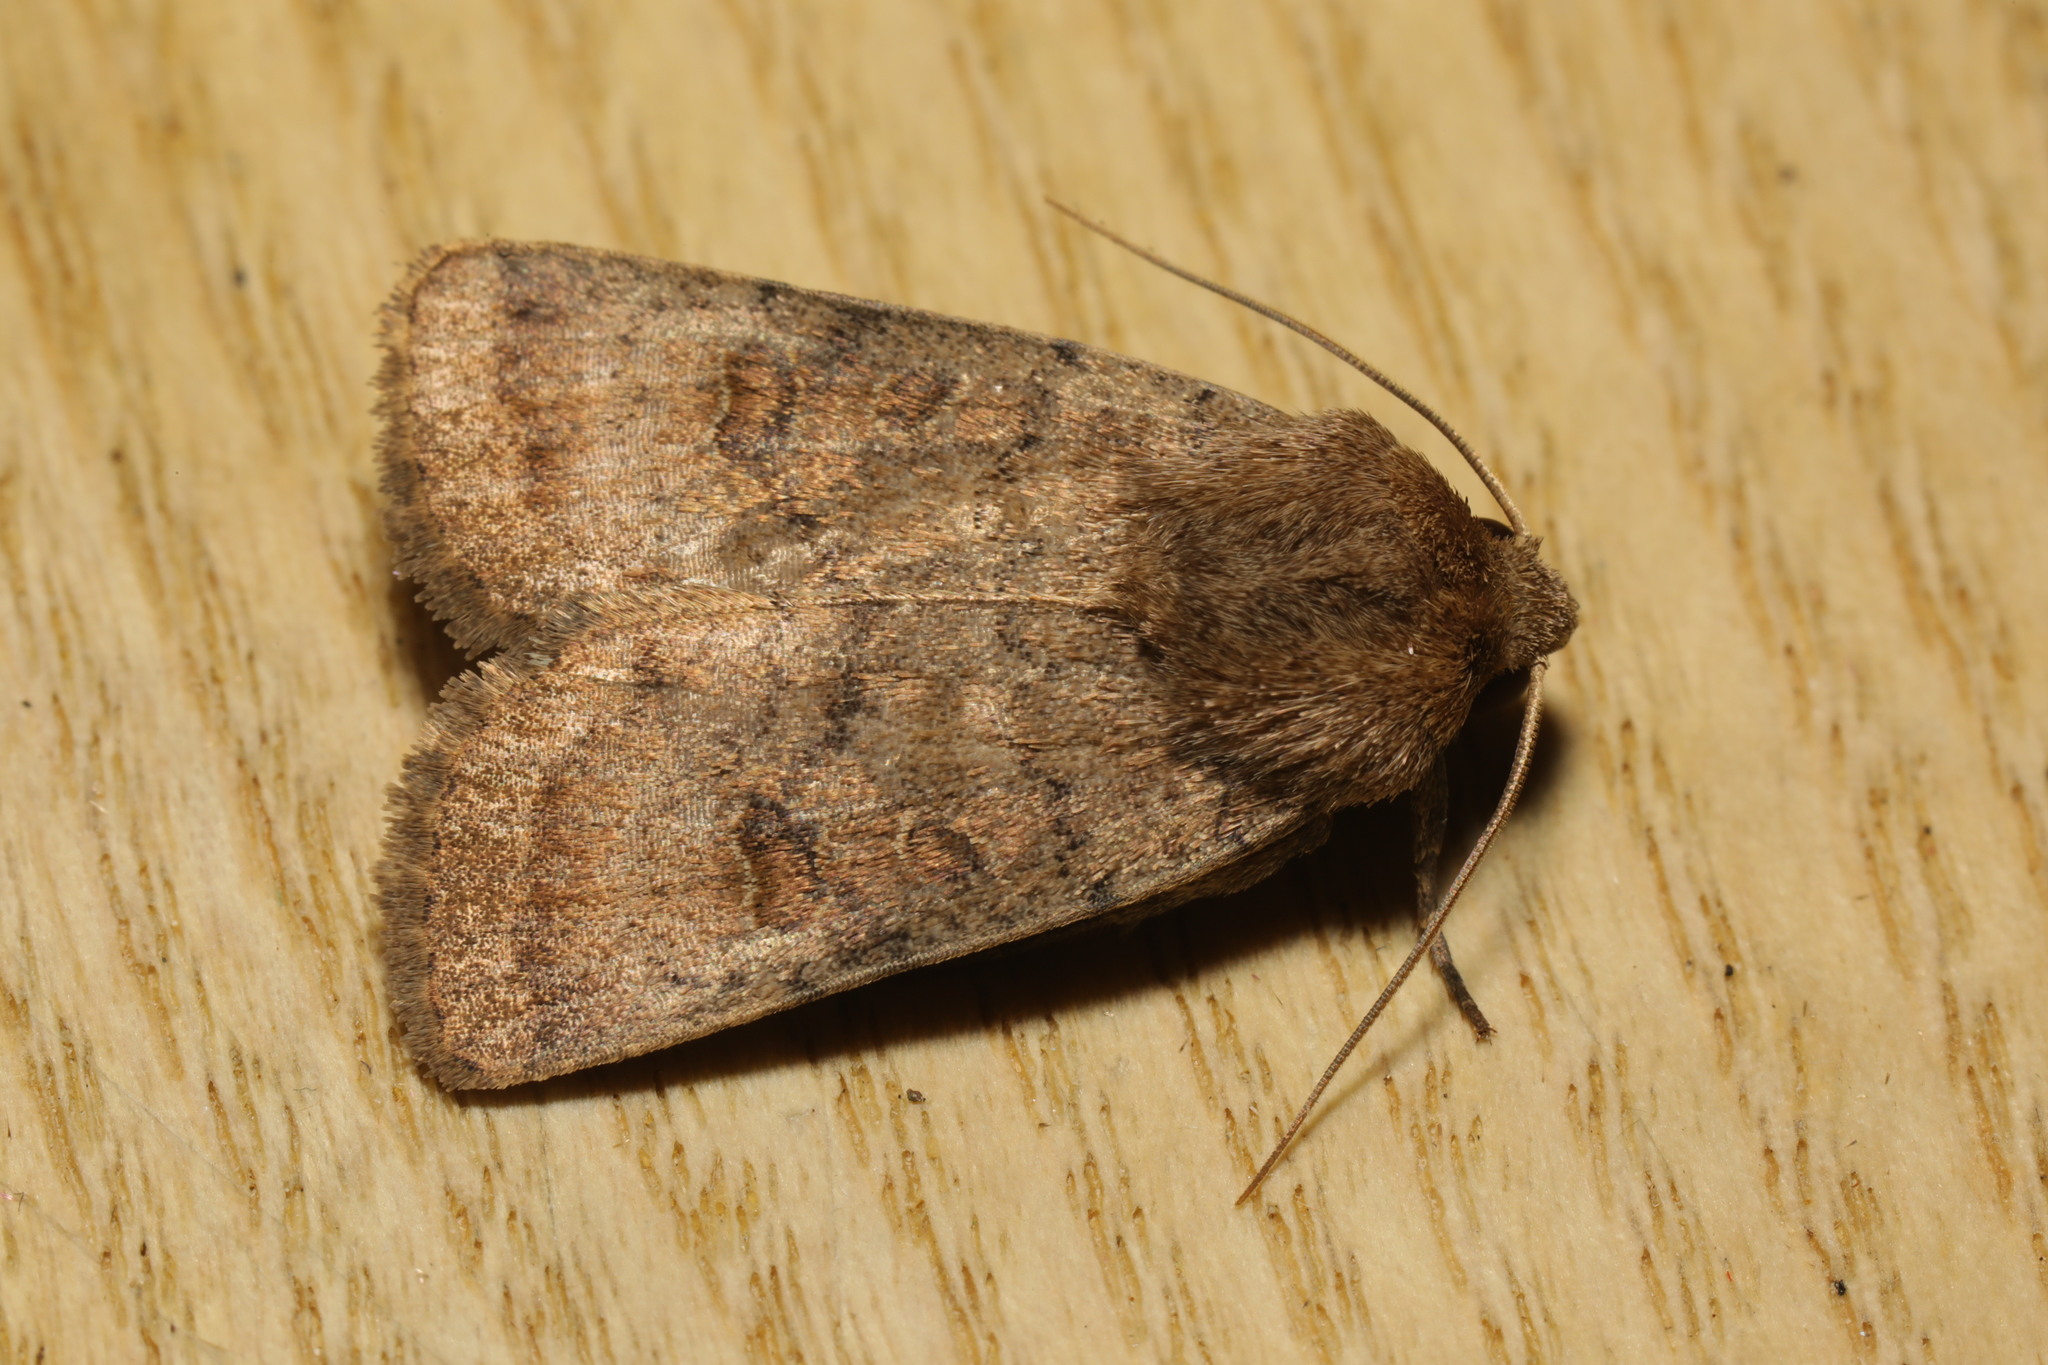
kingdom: Animalia
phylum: Arthropoda
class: Insecta
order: Lepidoptera
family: Noctuidae
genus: Hoplodrina
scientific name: Hoplodrina octogenaria
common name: Uncertain
